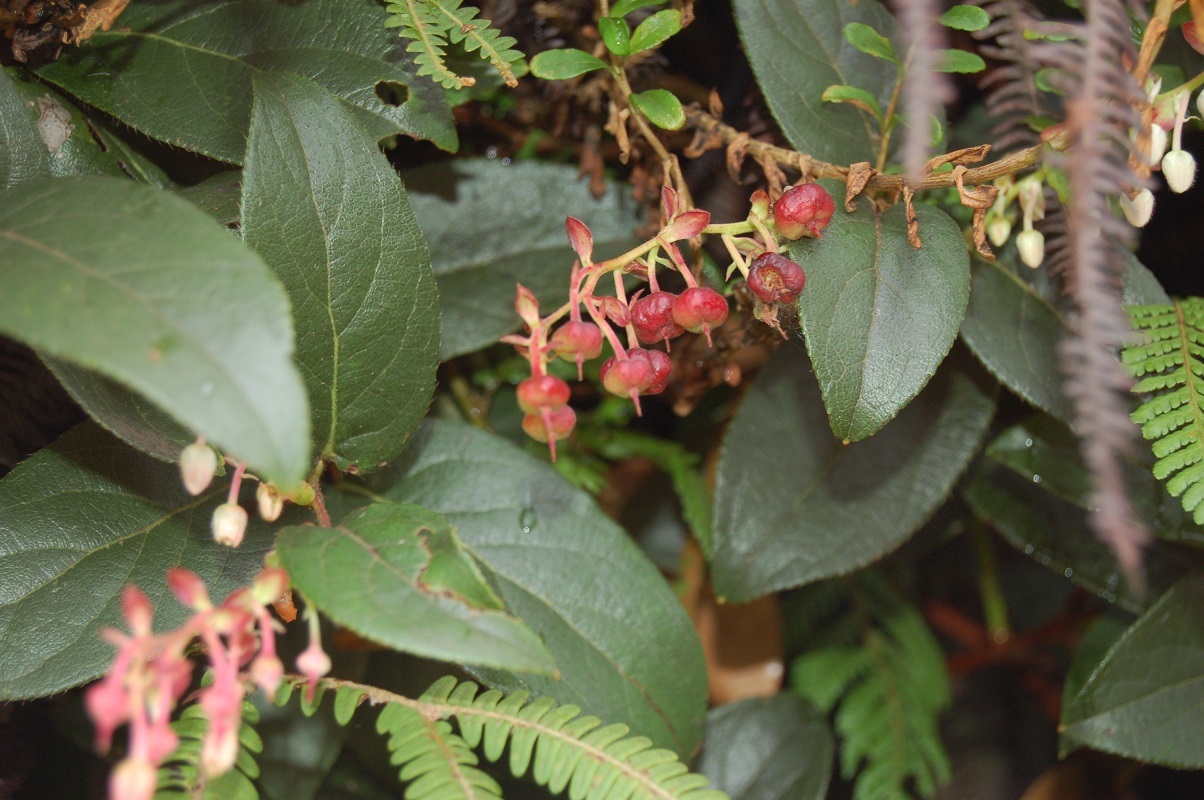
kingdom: Plantae
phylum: Tracheophyta
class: Magnoliopsida
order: Ericales
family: Ericaceae
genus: Gaultheria
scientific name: Gaultheria erecta
